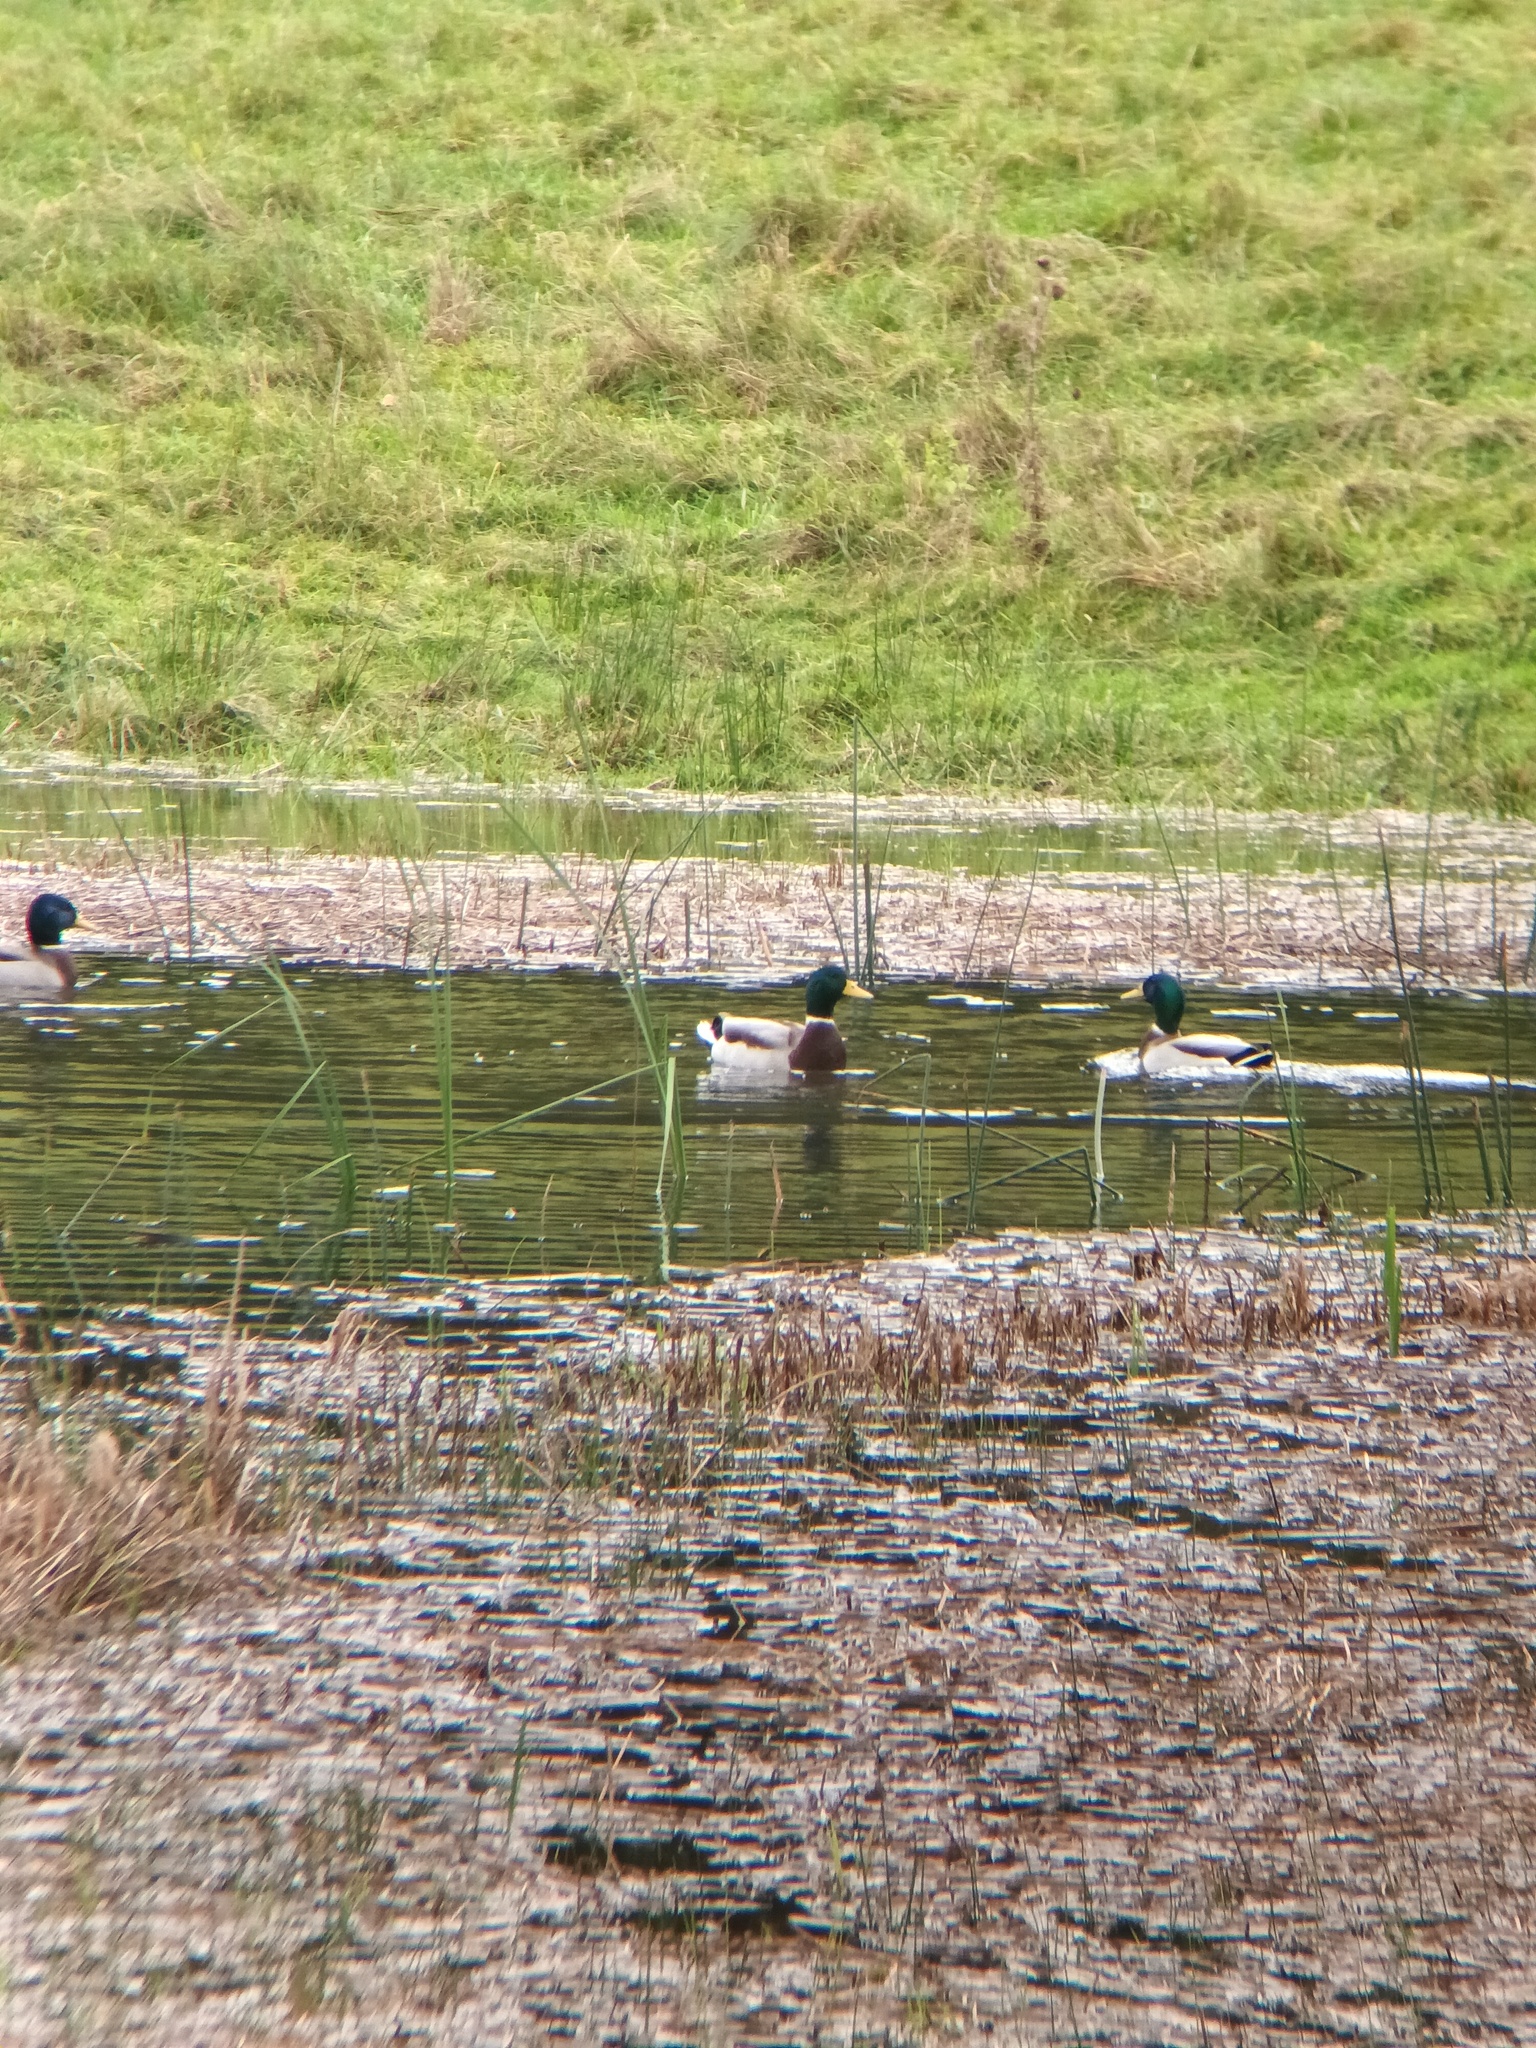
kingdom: Animalia
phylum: Chordata
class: Aves
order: Anseriformes
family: Anatidae
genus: Anas
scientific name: Anas platyrhynchos
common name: Mallard
